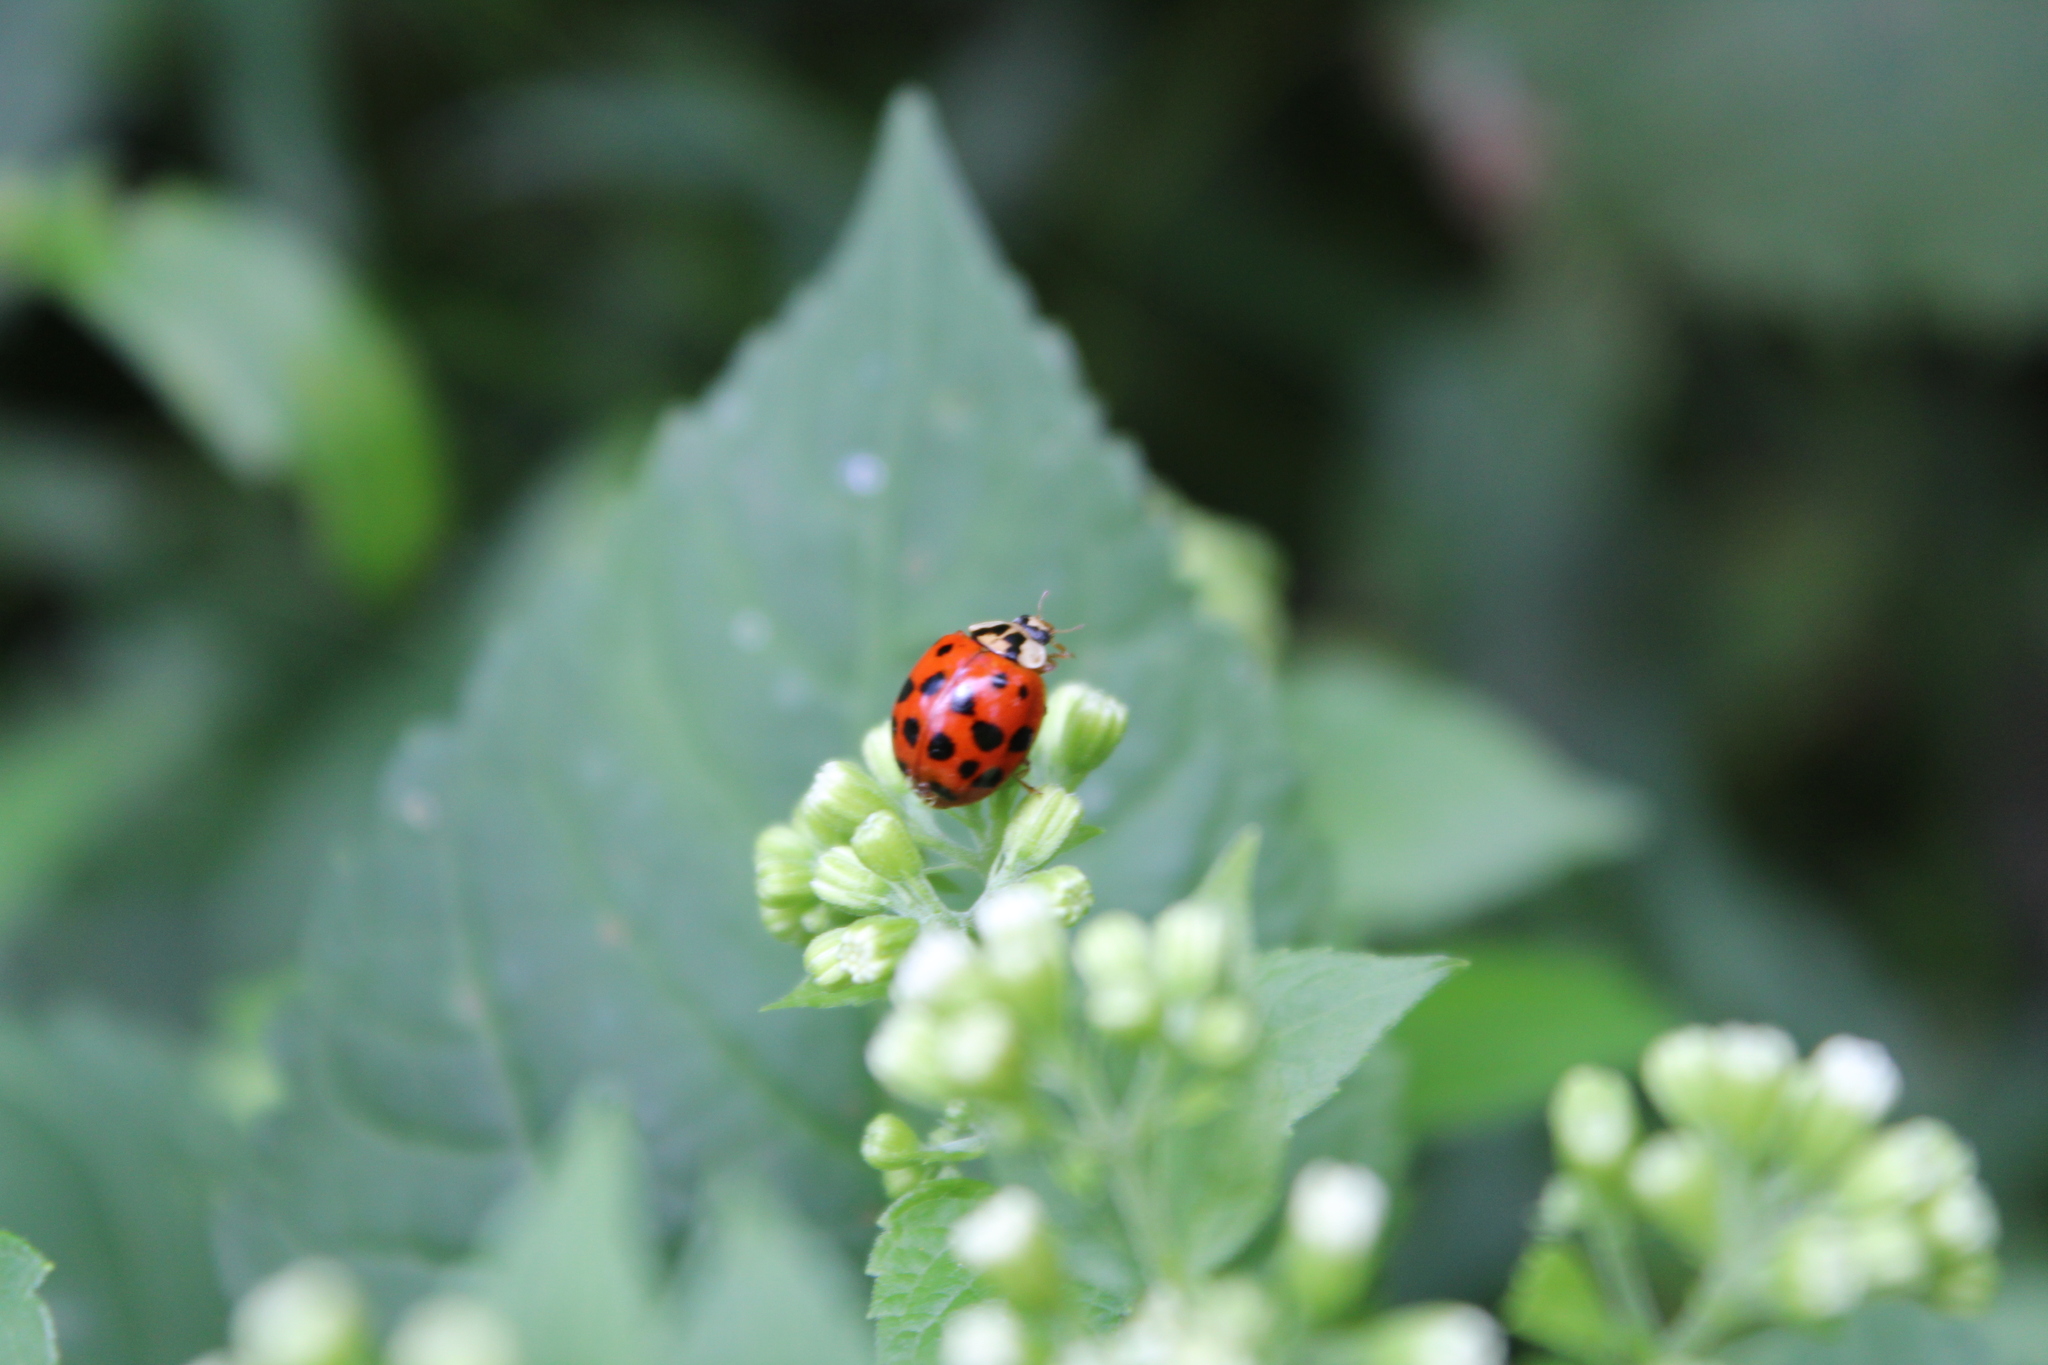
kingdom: Animalia
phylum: Arthropoda
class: Insecta
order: Coleoptera
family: Coccinellidae
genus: Harmonia
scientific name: Harmonia axyridis
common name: Harlequin ladybird
